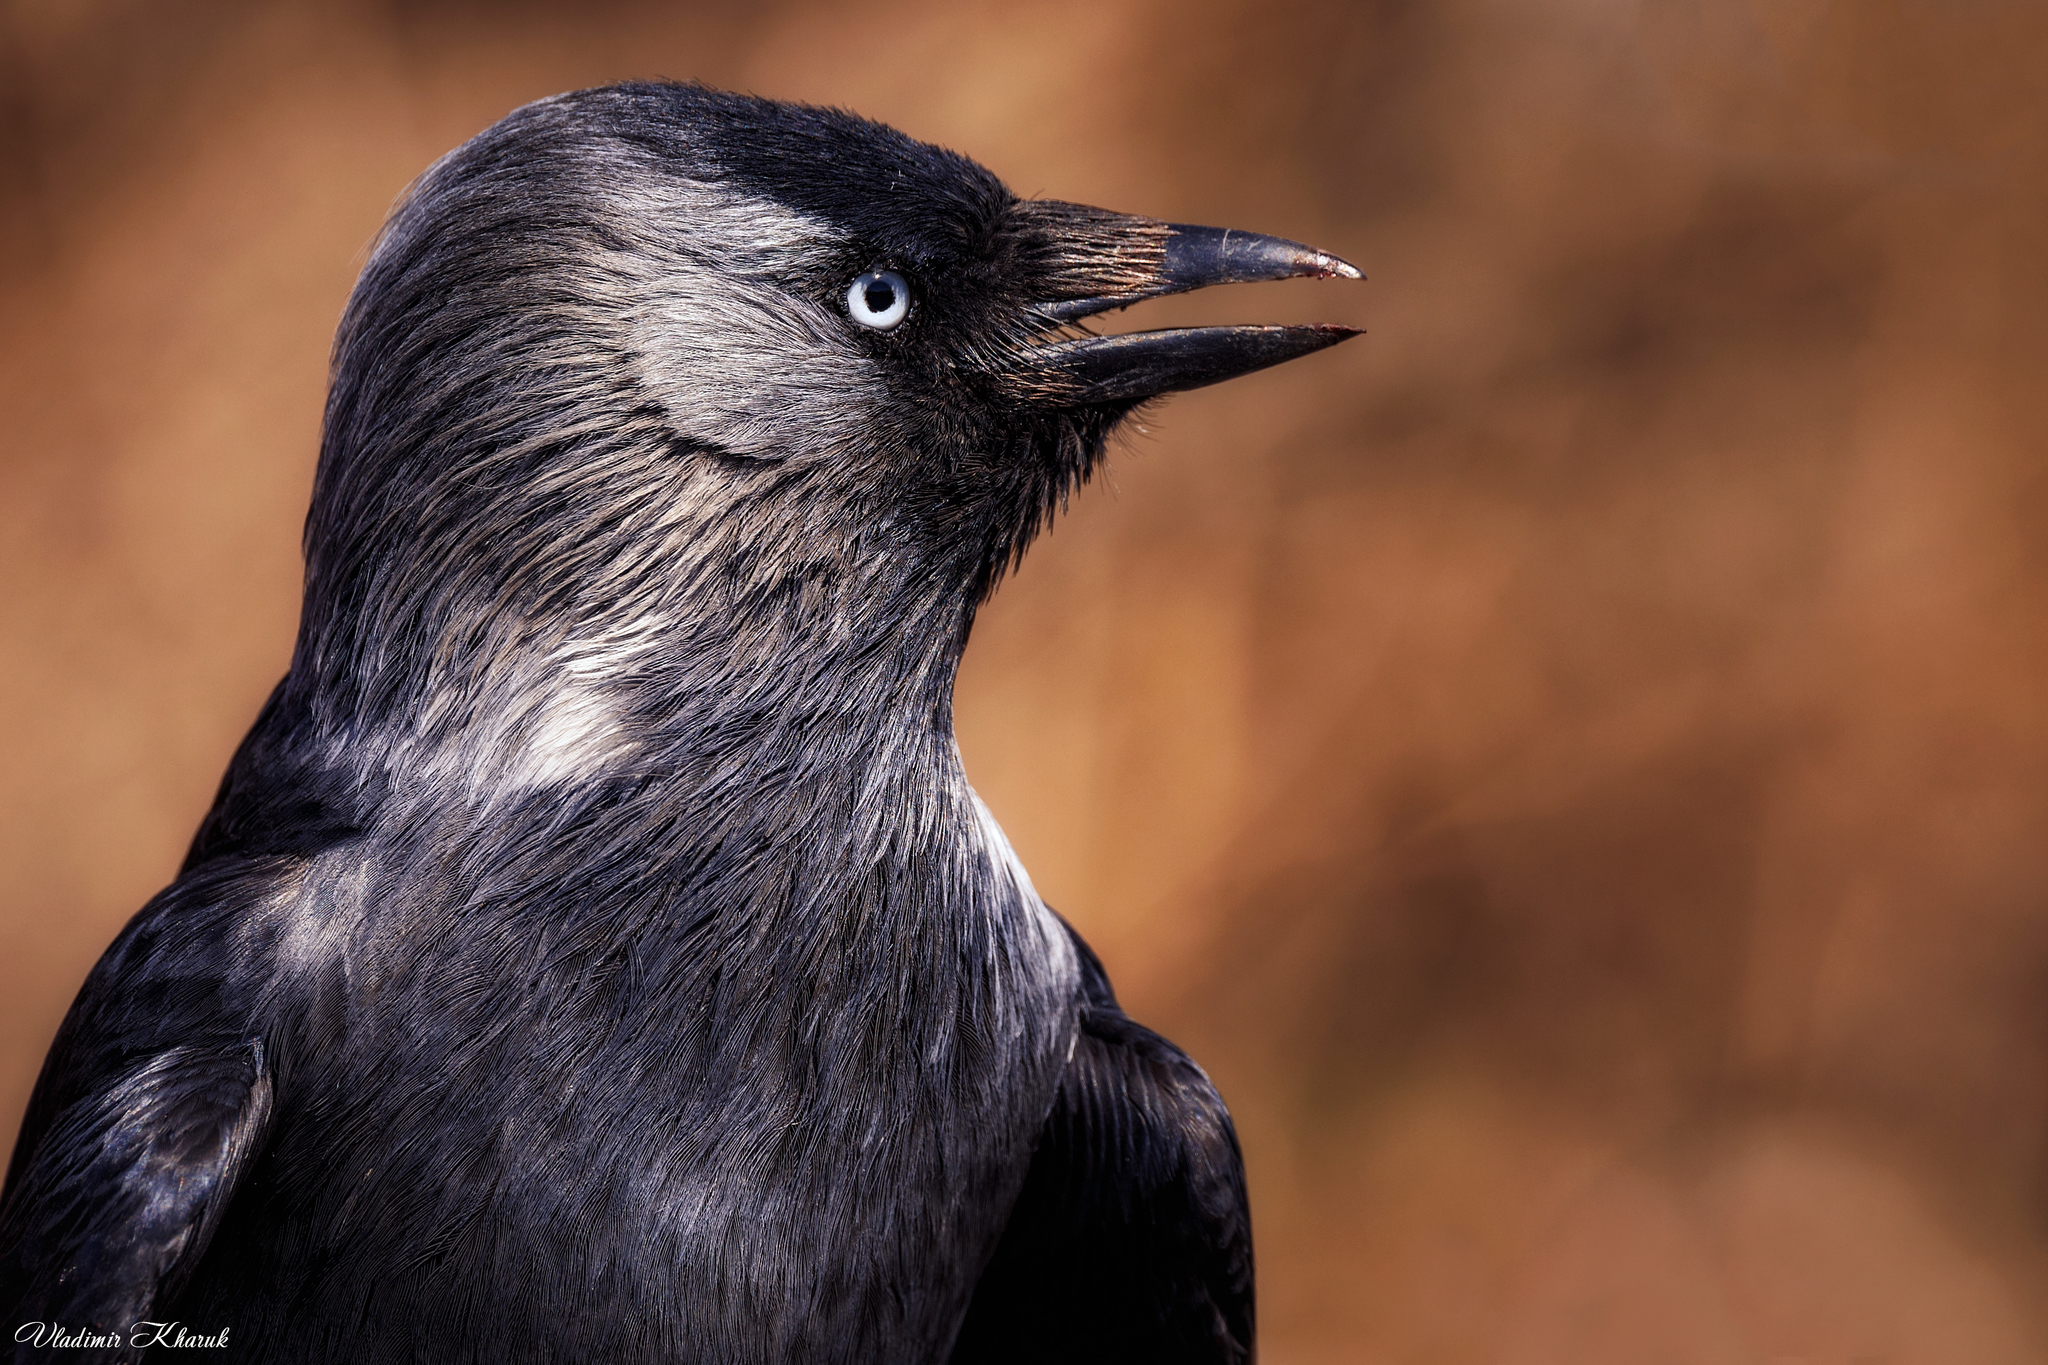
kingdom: Animalia
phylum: Chordata
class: Aves
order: Passeriformes
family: Corvidae
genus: Coloeus
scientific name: Coloeus monedula
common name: Western jackdaw
